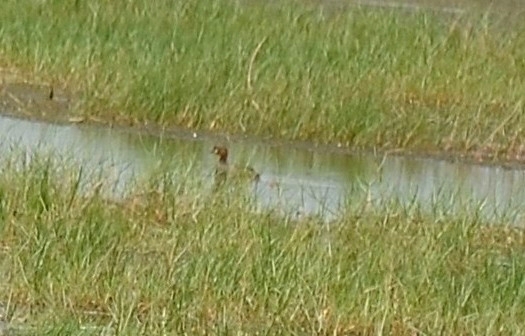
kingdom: Animalia
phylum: Chordata
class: Aves
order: Podicipediformes
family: Podicipedidae
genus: Tachybaptus
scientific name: Tachybaptus ruficollis
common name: Little grebe
